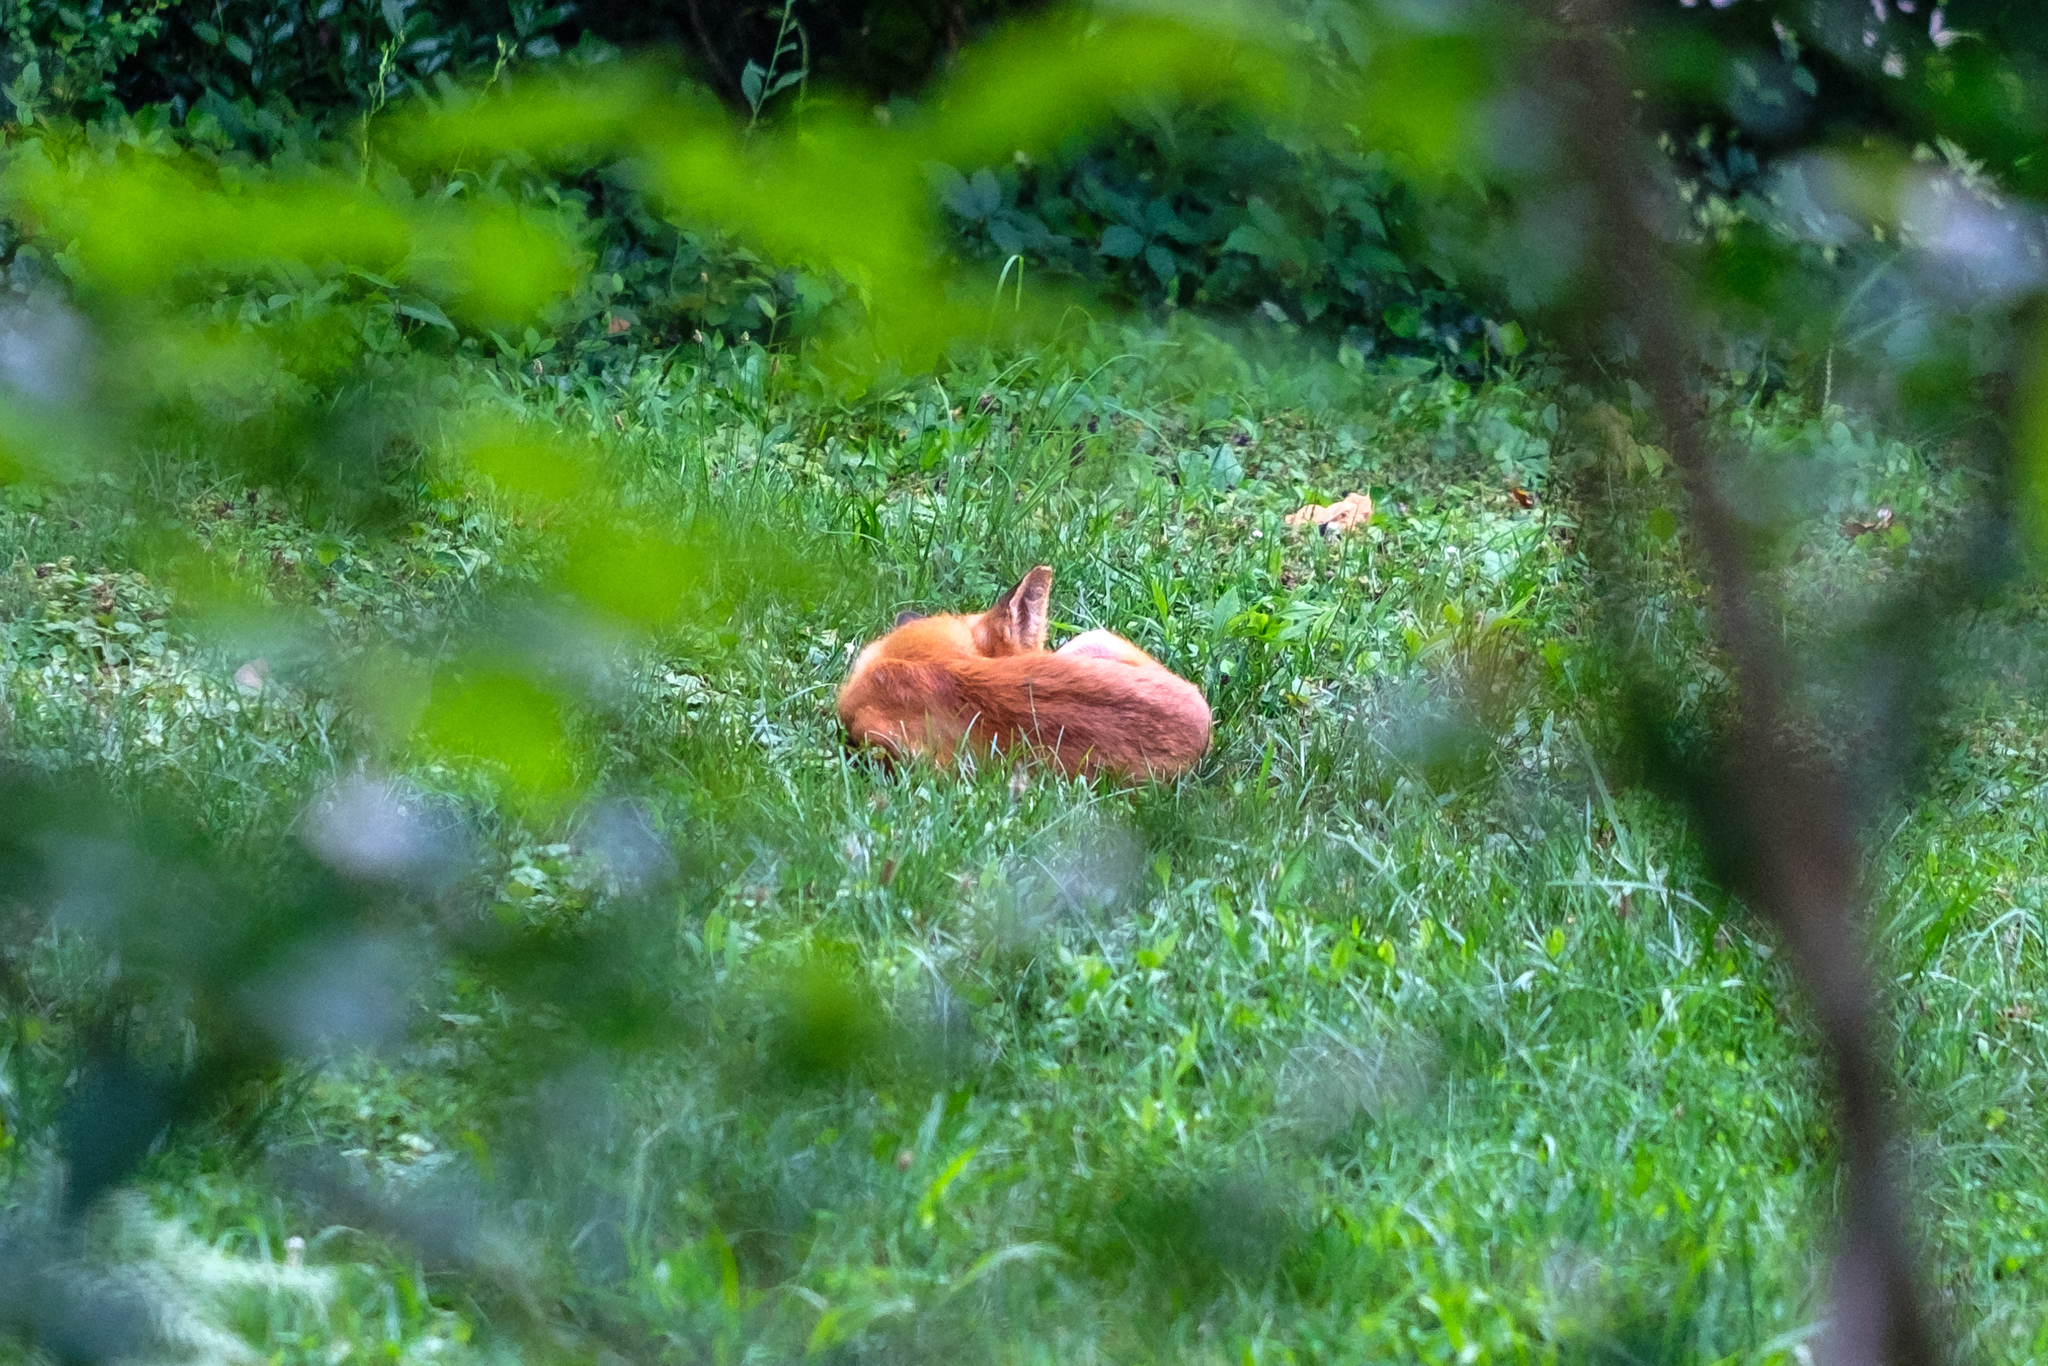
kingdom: Animalia
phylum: Chordata
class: Mammalia
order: Carnivora
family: Canidae
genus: Vulpes
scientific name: Vulpes vulpes
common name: Red fox
